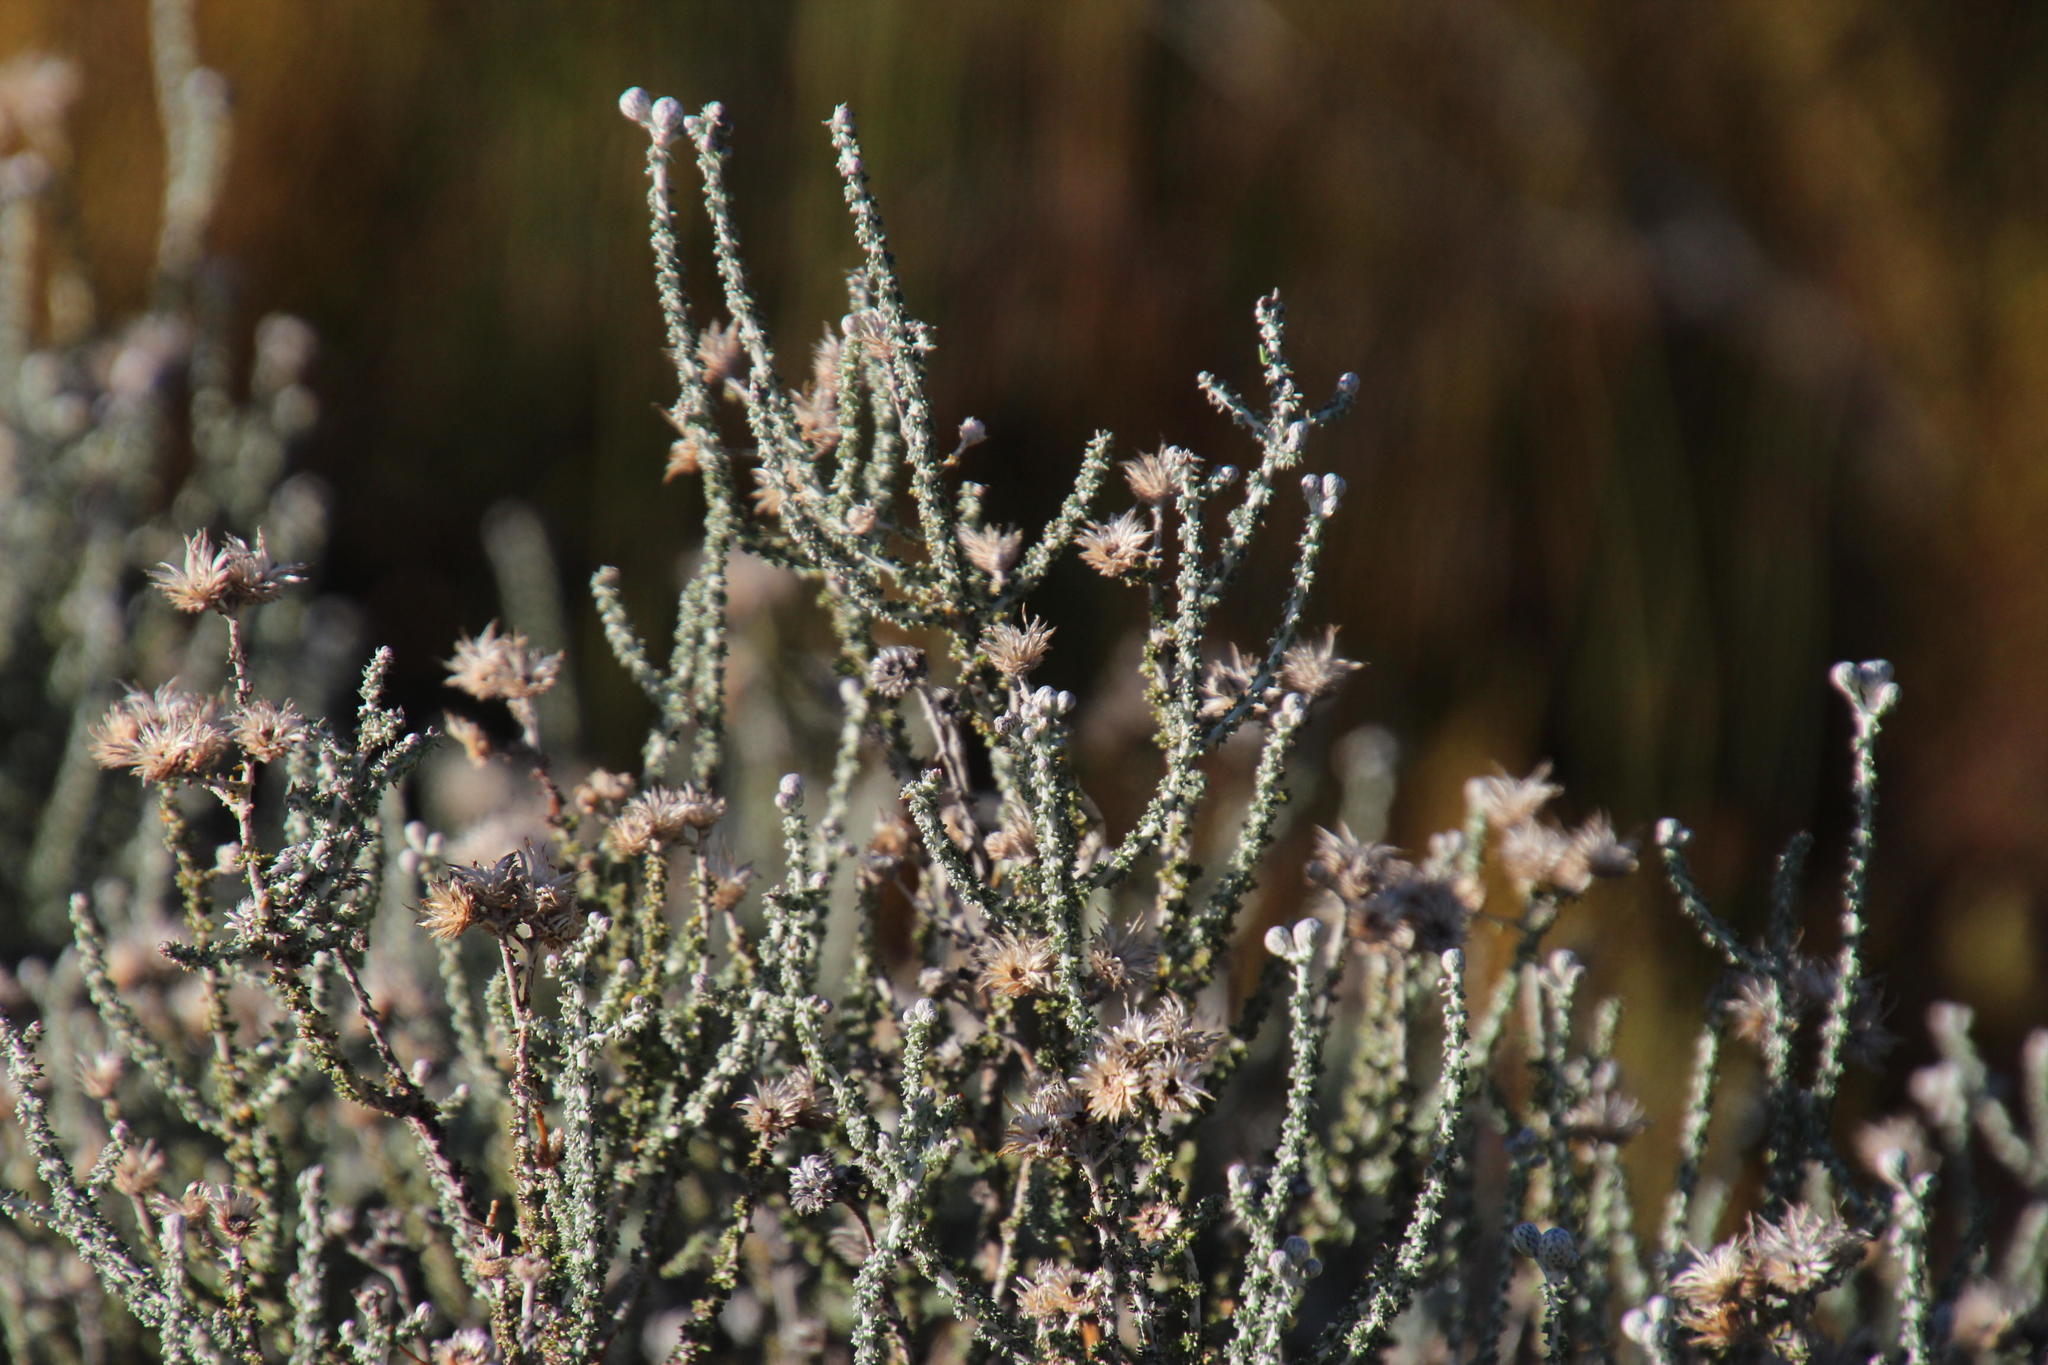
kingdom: Plantae
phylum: Tracheophyta
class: Magnoliopsida
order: Asterales
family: Asteraceae
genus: Seriphium
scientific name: Seriphium plumosum
